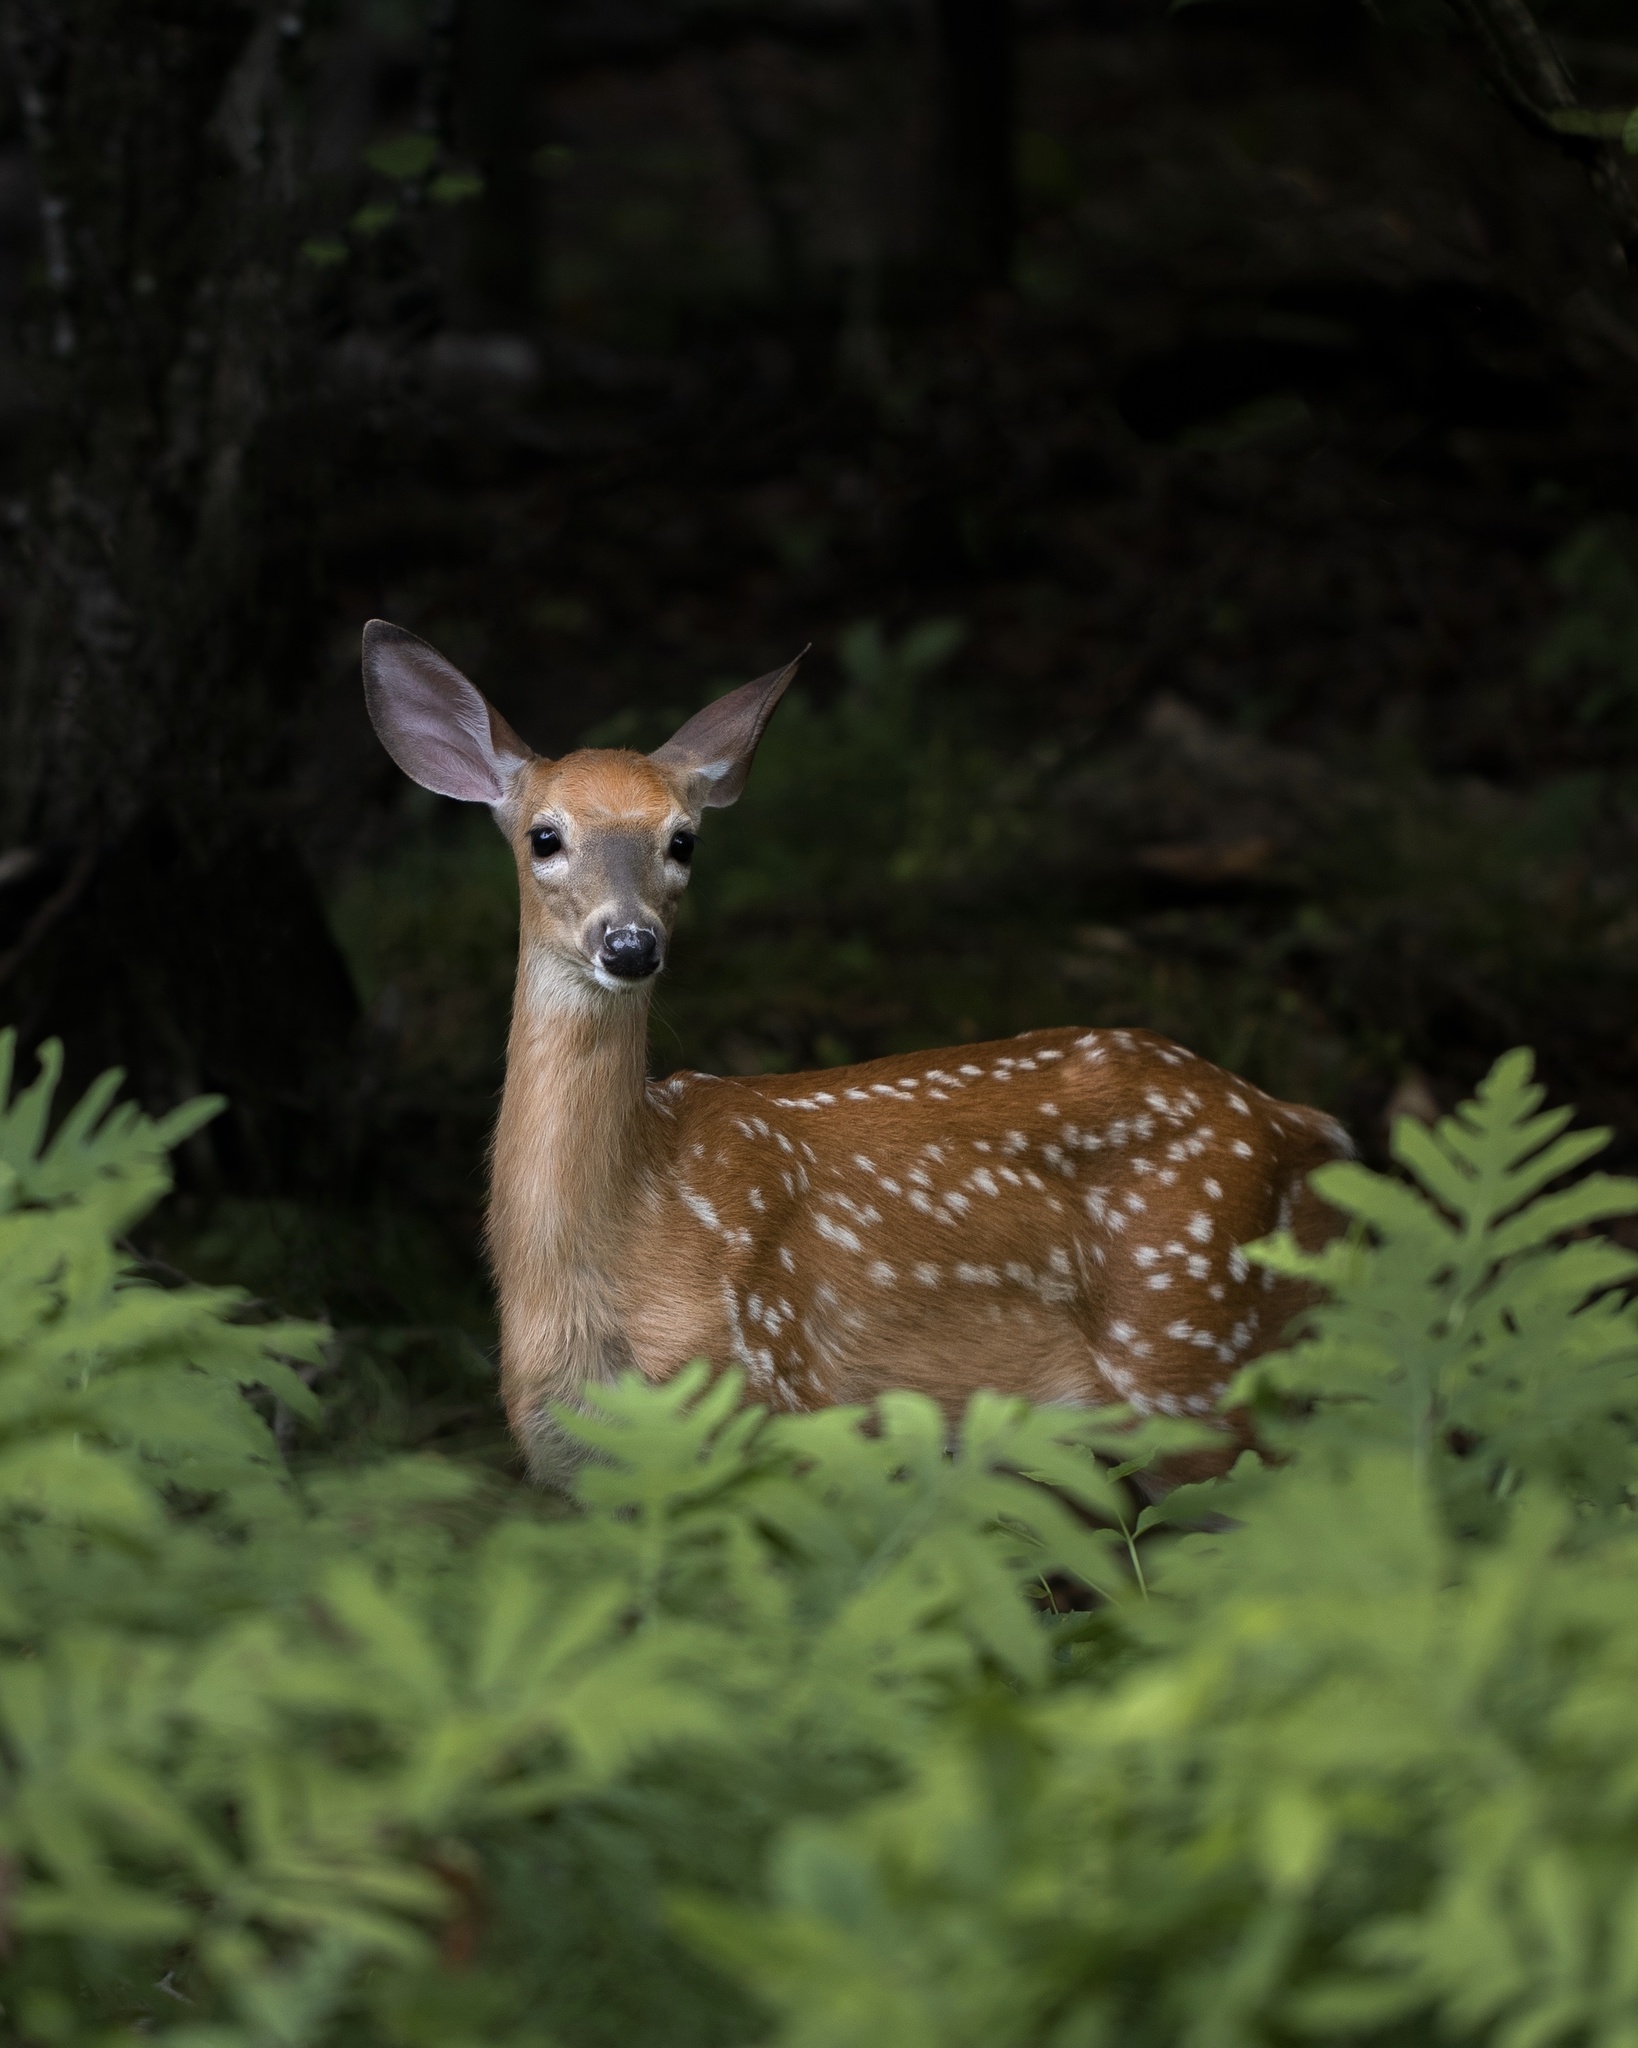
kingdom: Animalia
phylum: Chordata
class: Mammalia
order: Artiodactyla
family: Cervidae
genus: Odocoileus
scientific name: Odocoileus virginianus
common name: White-tailed deer
